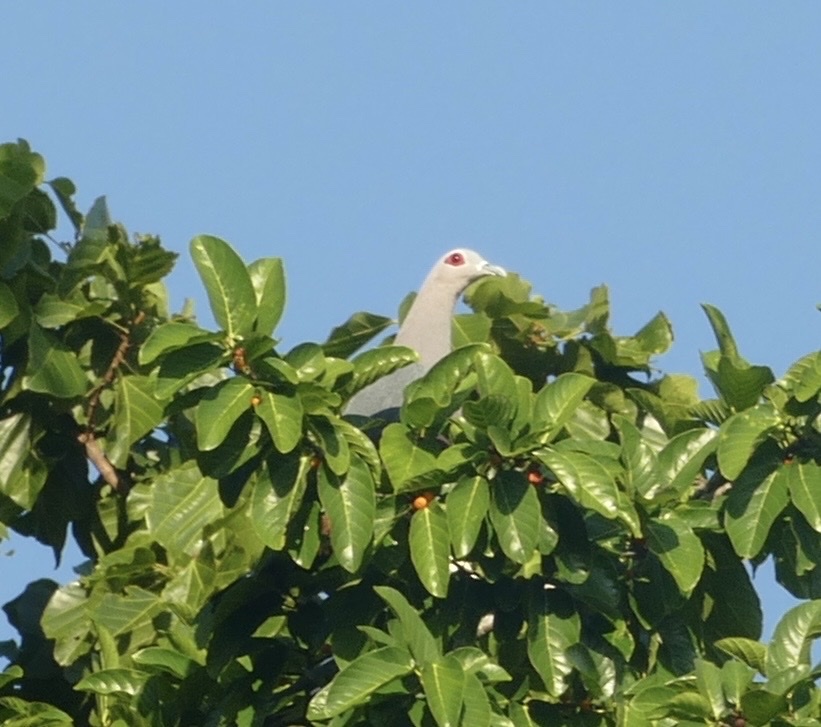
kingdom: Animalia
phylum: Chordata
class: Aves
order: Columbiformes
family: Columbidae
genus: Ducula
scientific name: Ducula pinon
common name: Pinon's imperial pigeon
